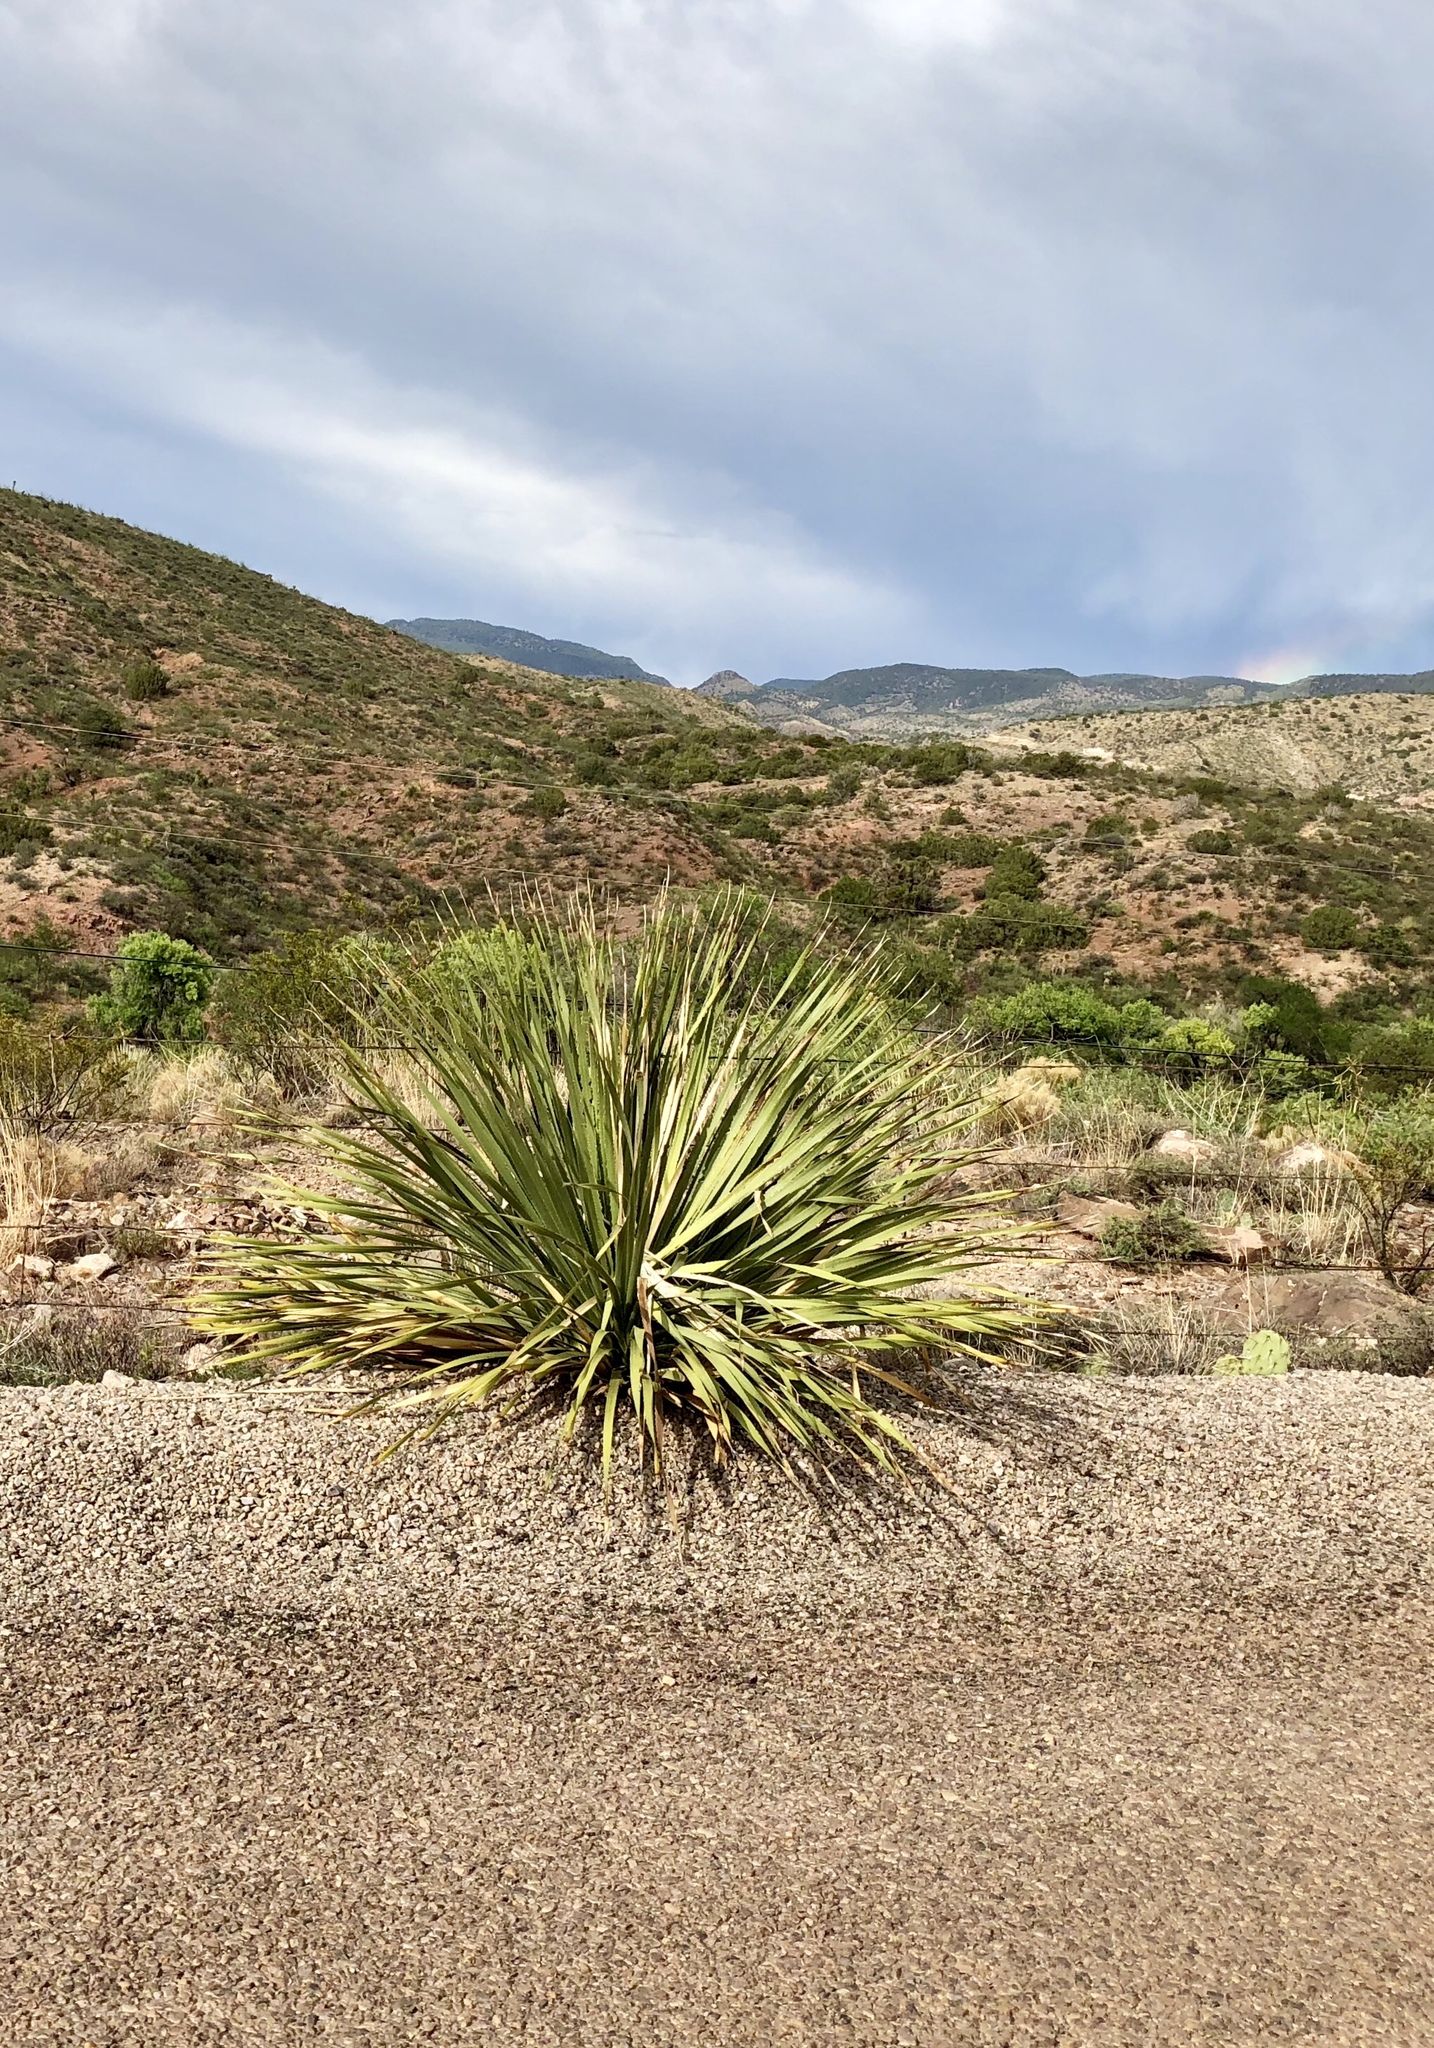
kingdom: Plantae
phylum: Tracheophyta
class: Liliopsida
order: Asparagales
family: Asparagaceae
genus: Dasylirion
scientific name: Dasylirion wheeleri
